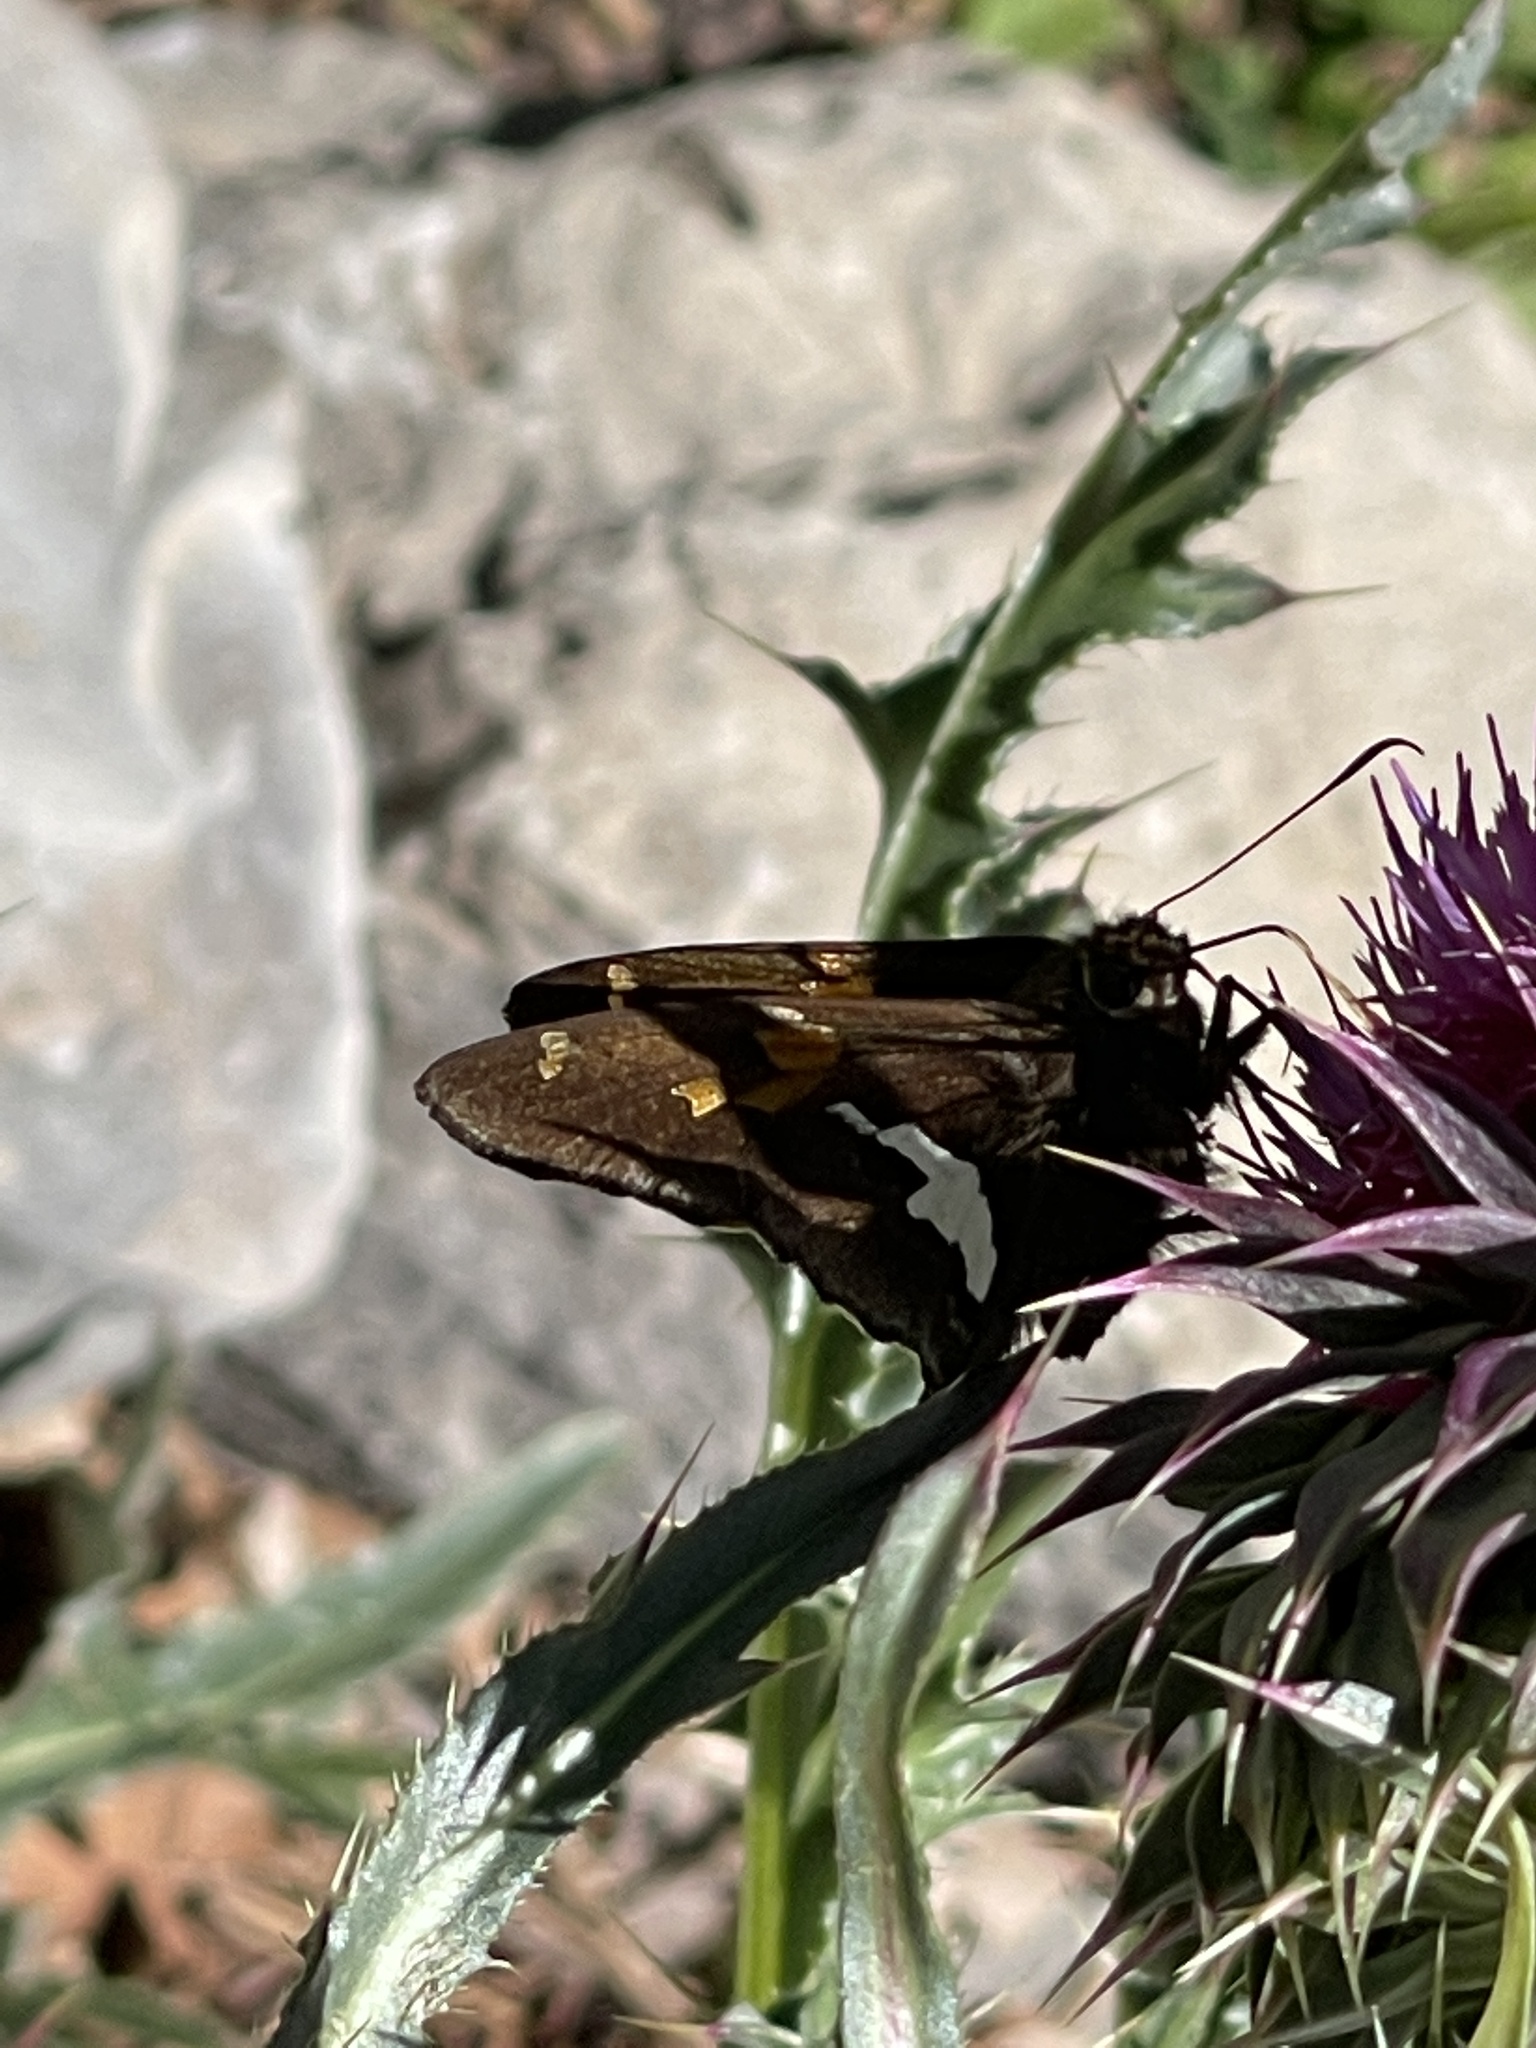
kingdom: Animalia
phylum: Arthropoda
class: Insecta
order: Lepidoptera
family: Hesperiidae
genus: Epargyreus
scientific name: Epargyreus clarus
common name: Silver-spotted skipper
